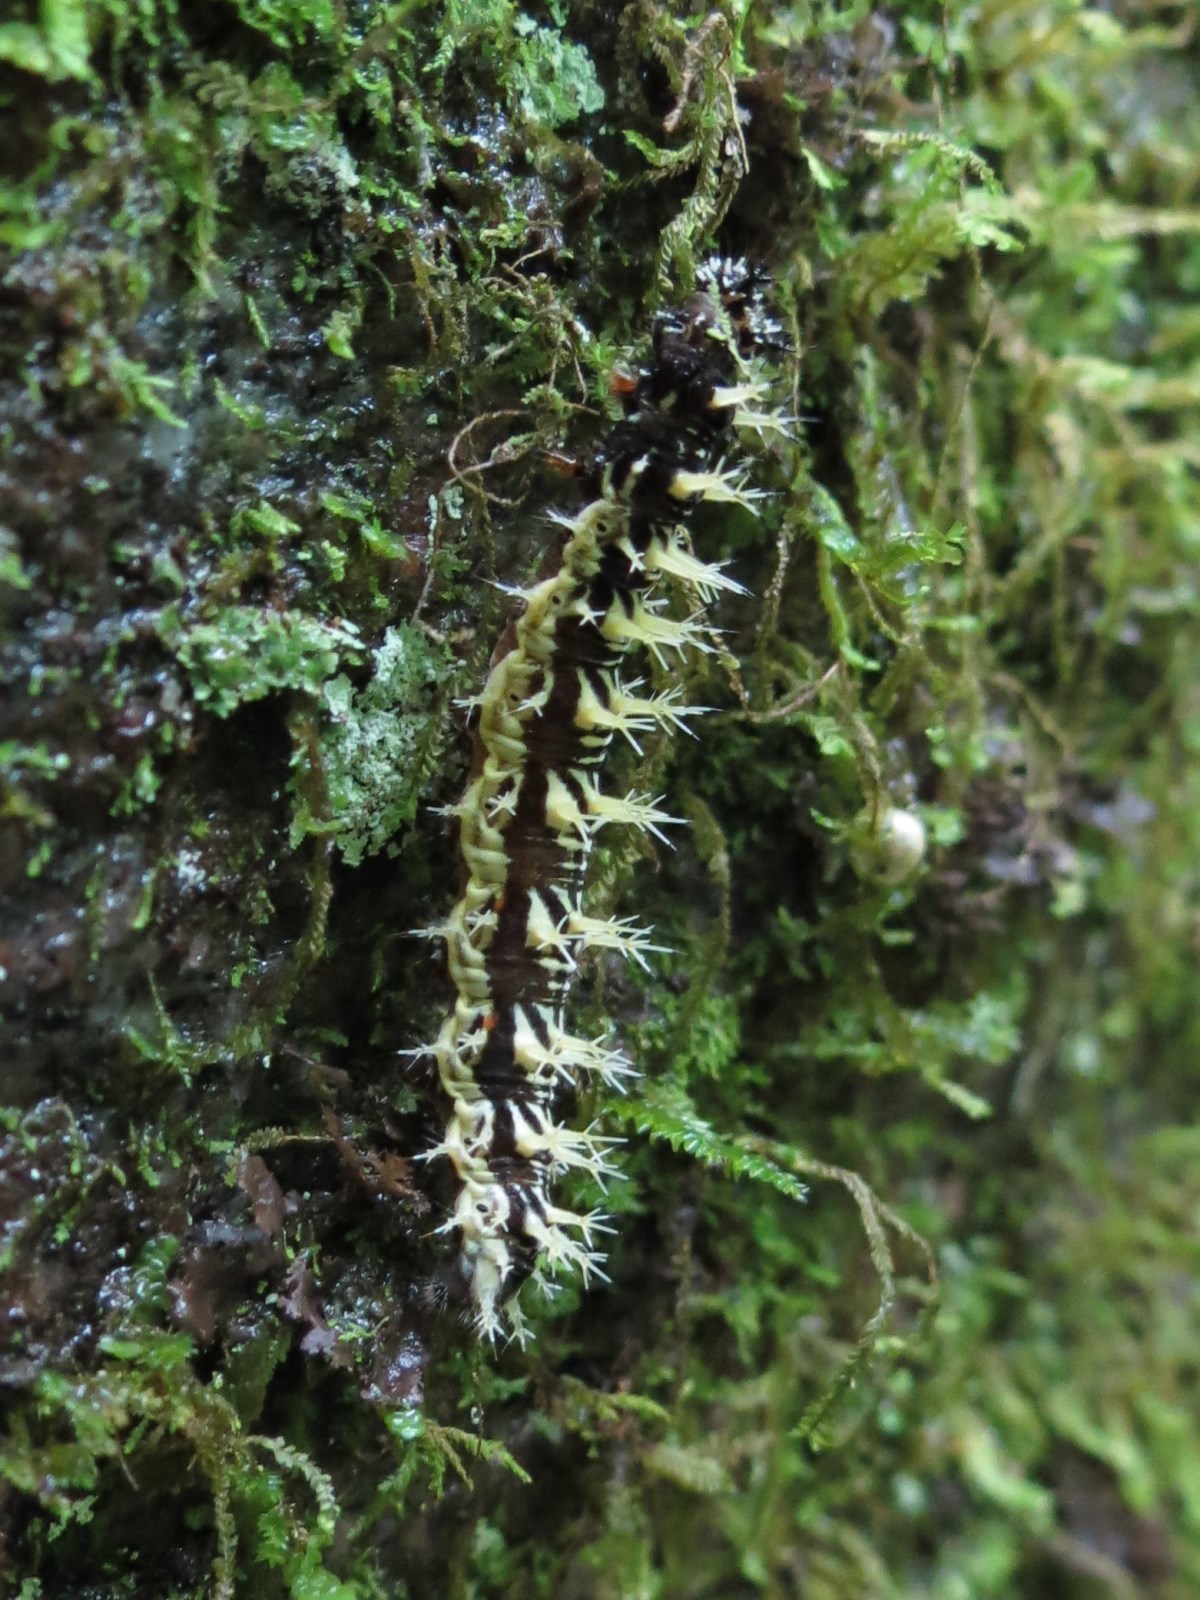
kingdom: Animalia
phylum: Arthropoda
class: Insecta
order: Lepidoptera
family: Nymphalidae
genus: Polygonia
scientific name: Polygonia comma
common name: Eastern comma
